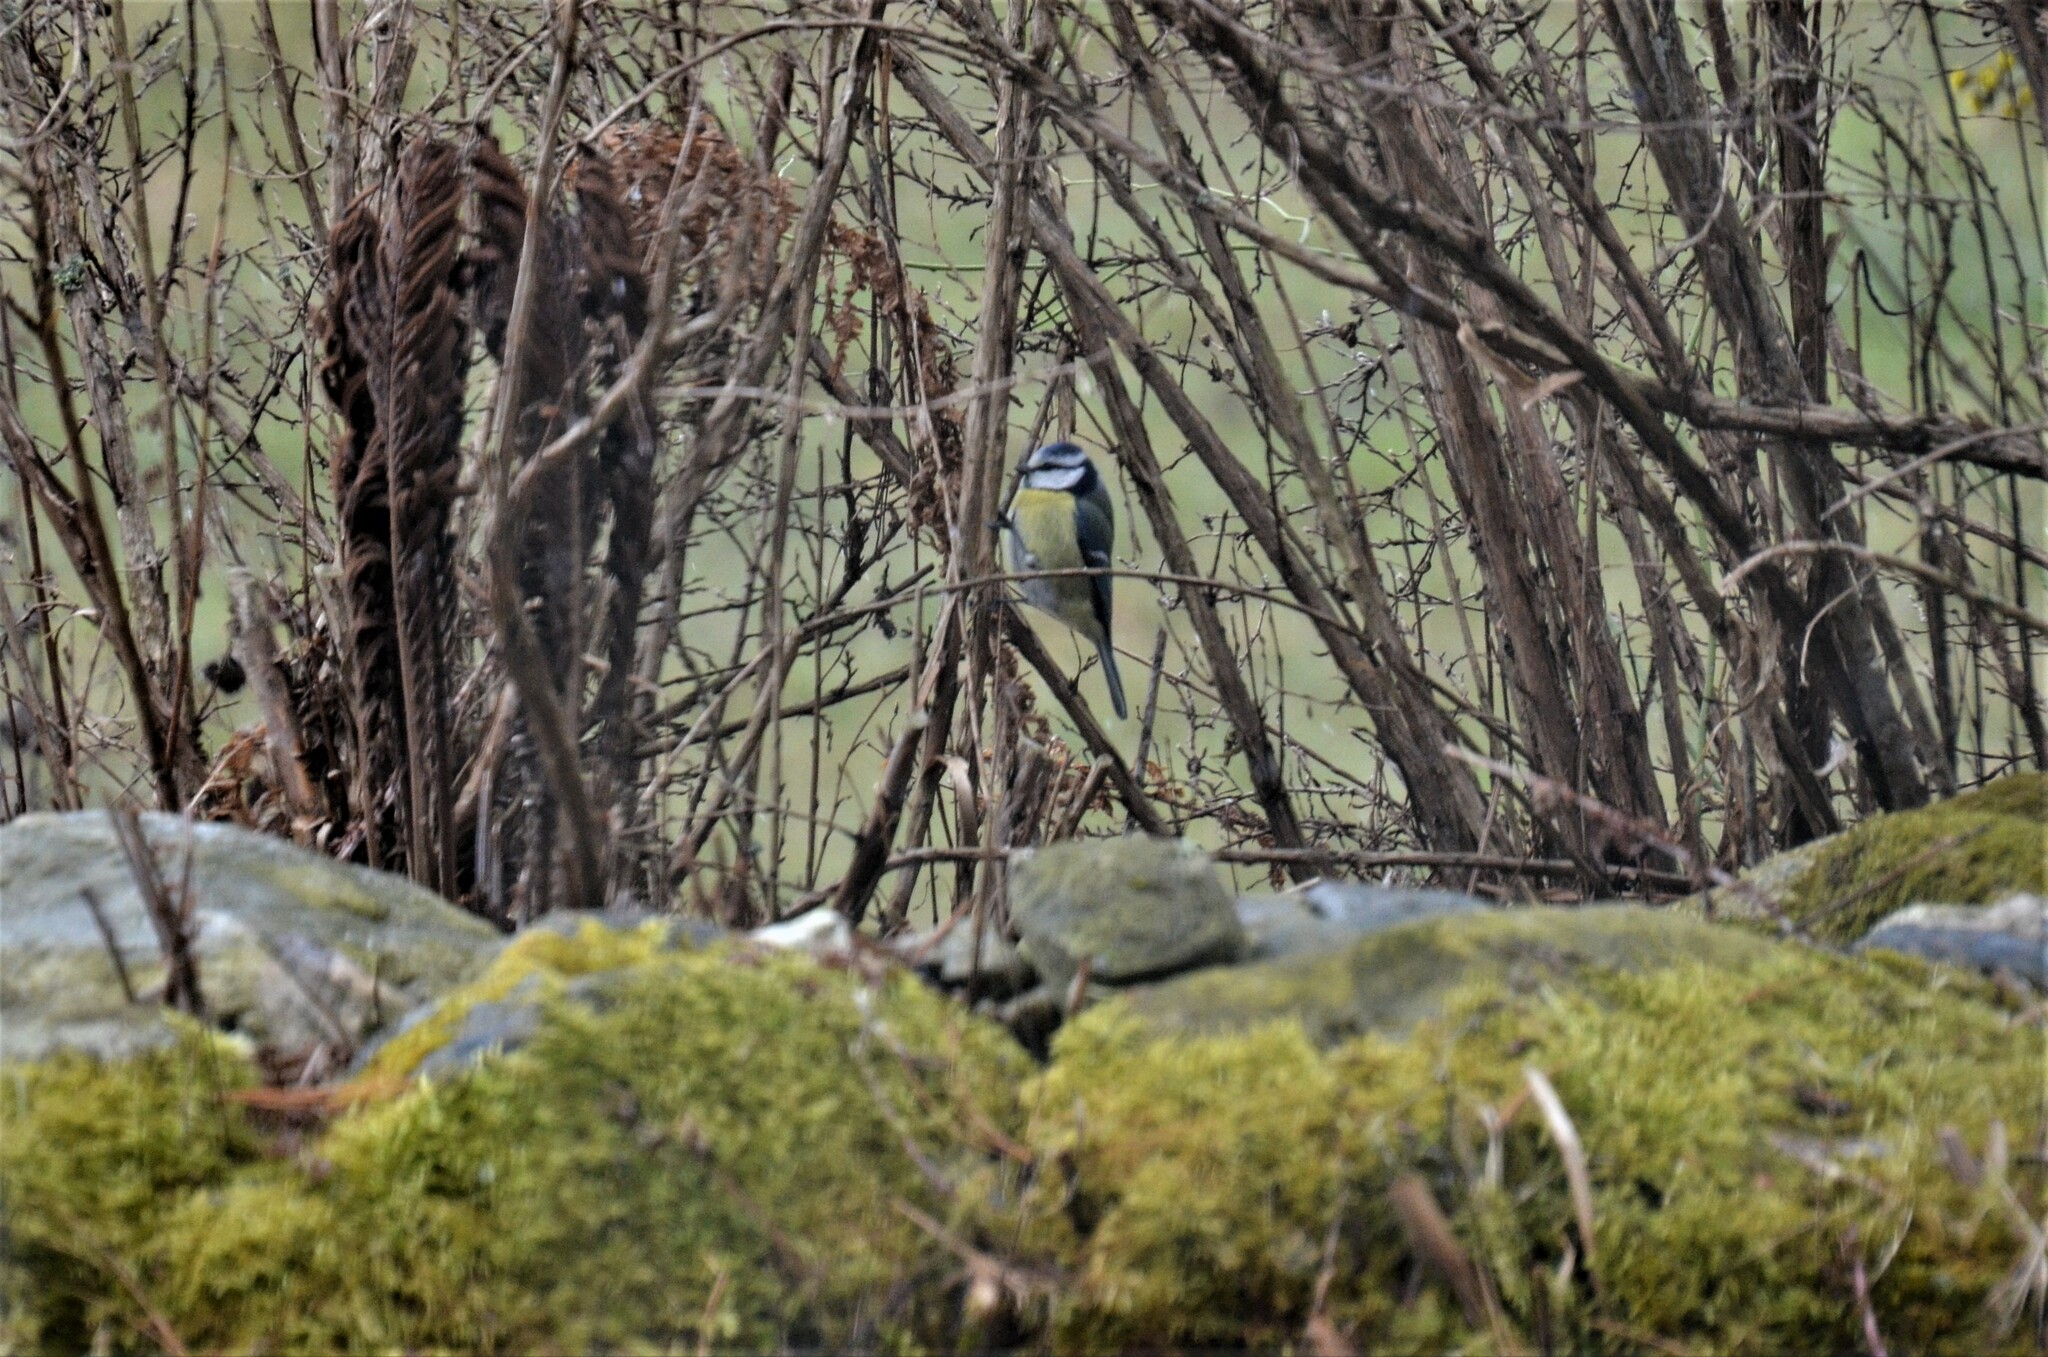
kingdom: Animalia
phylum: Chordata
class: Aves
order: Passeriformes
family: Paridae
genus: Cyanistes
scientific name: Cyanistes caeruleus
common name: Eurasian blue tit
